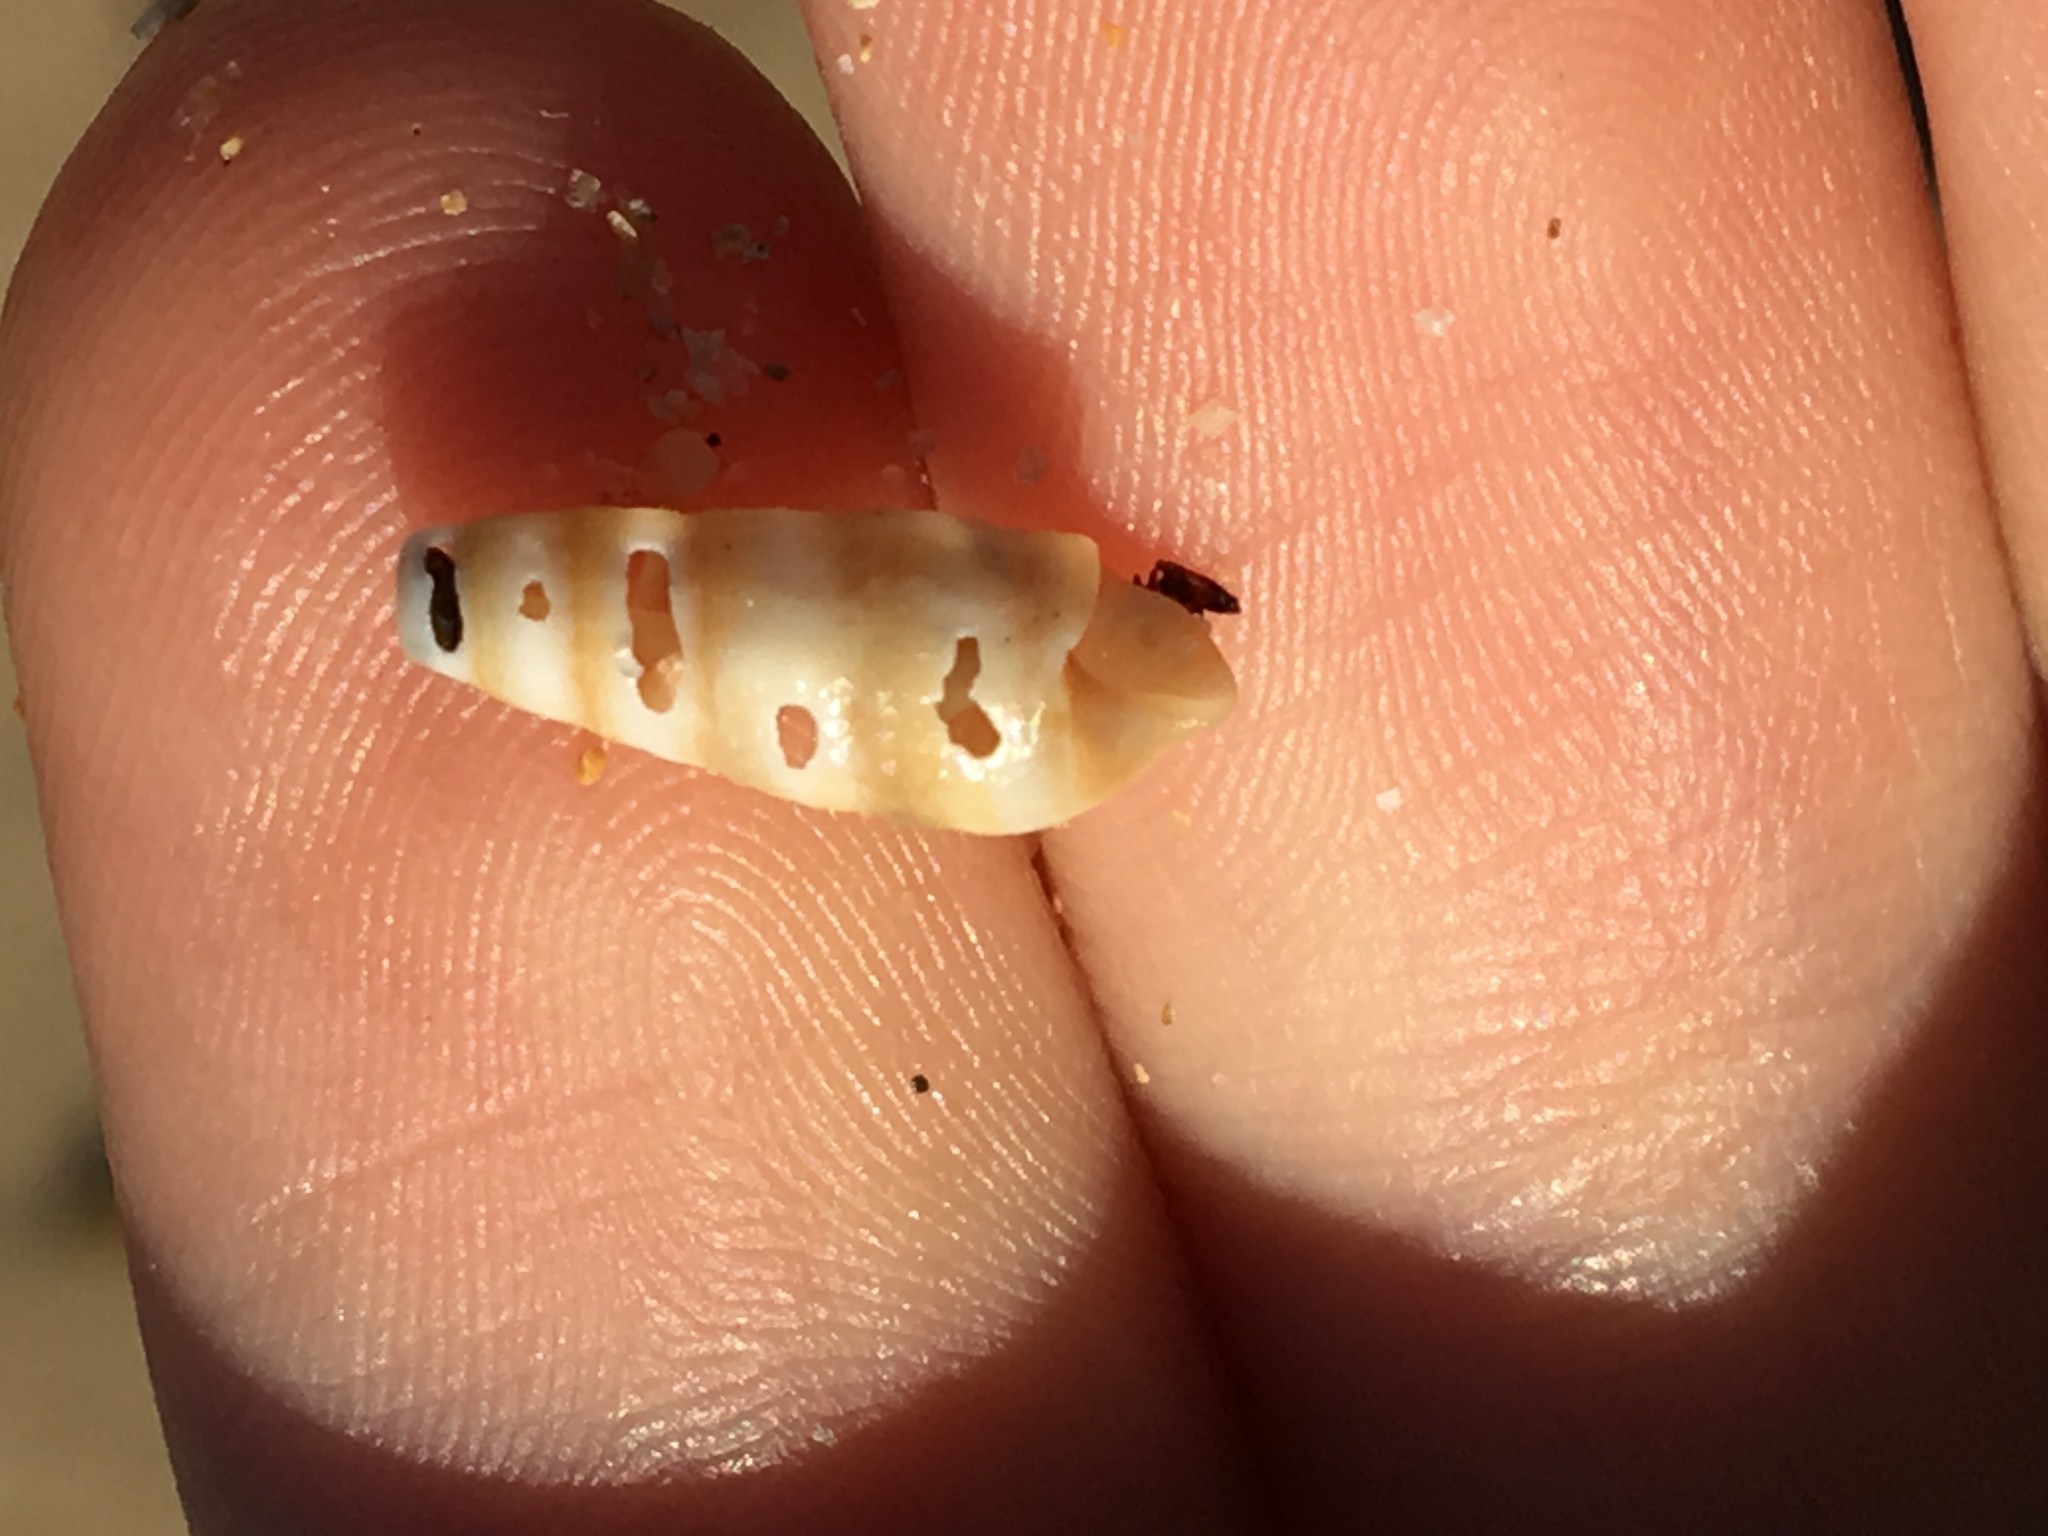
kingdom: Animalia
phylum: Mollusca
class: Gastropoda
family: Cerithiidae
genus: Cacozeliana
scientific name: Cacozeliana granarium
